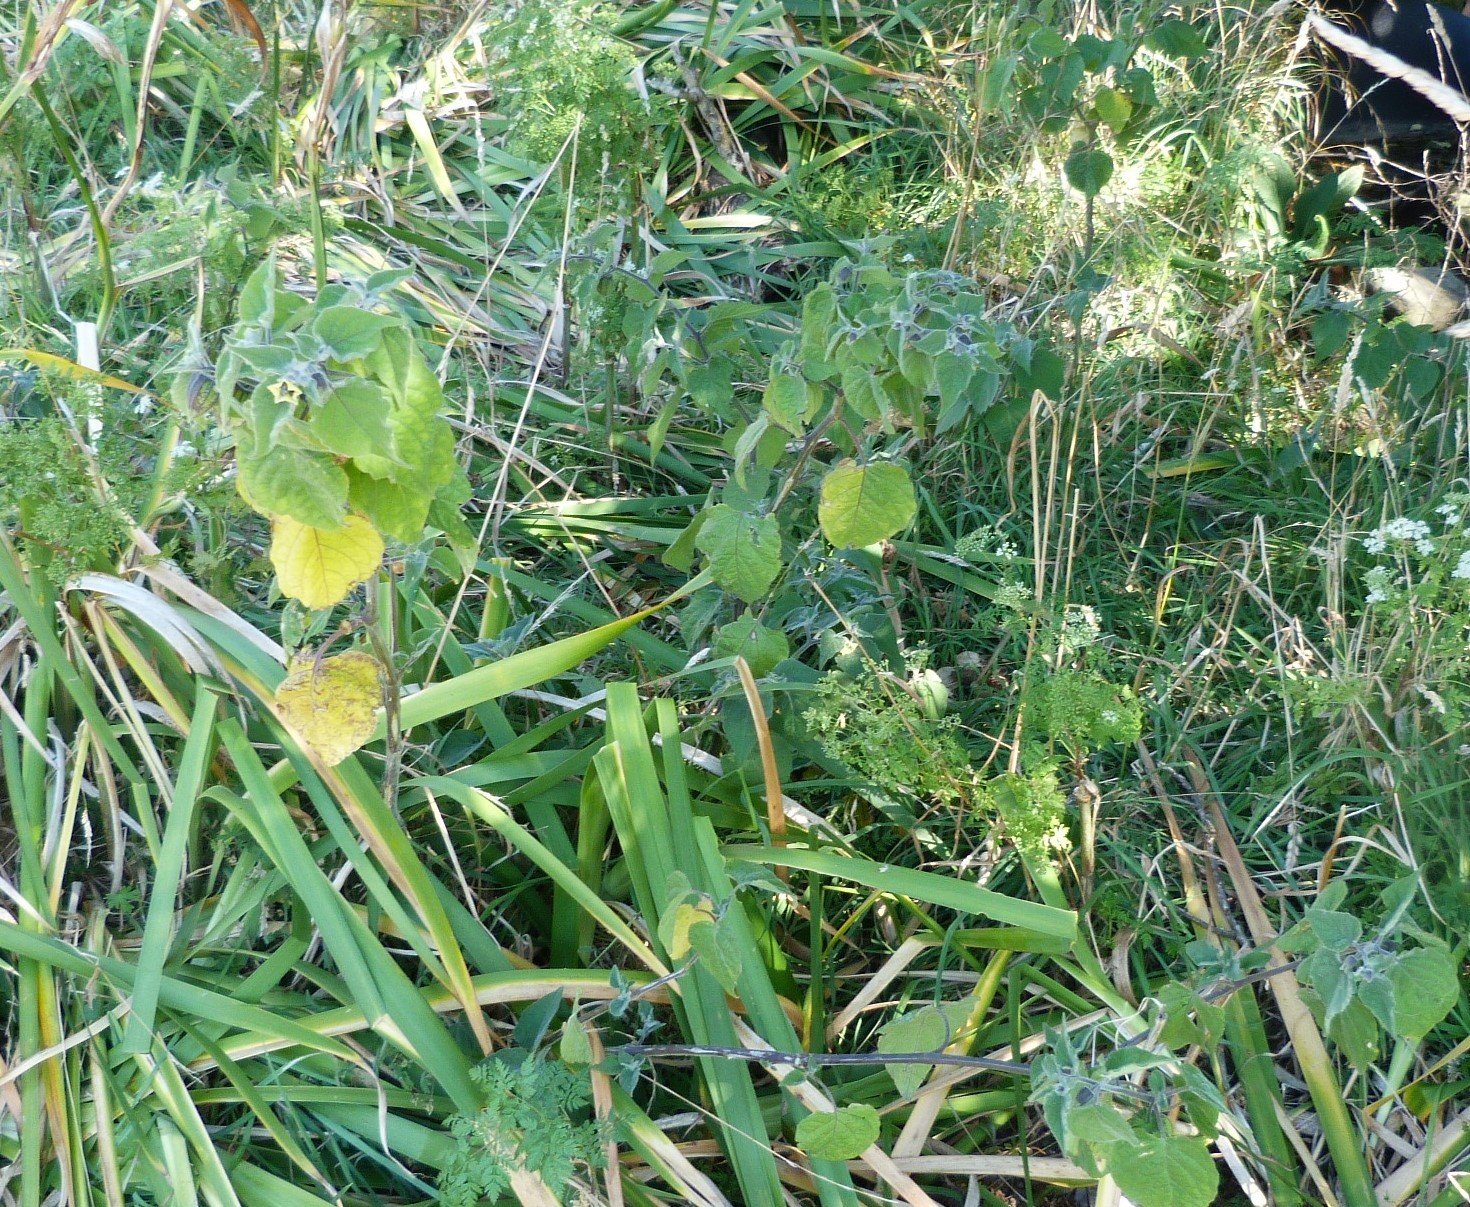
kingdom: Plantae
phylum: Tracheophyta
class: Magnoliopsida
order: Solanales
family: Solanaceae
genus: Physalis
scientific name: Physalis peruviana
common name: Cape-gooseberry
